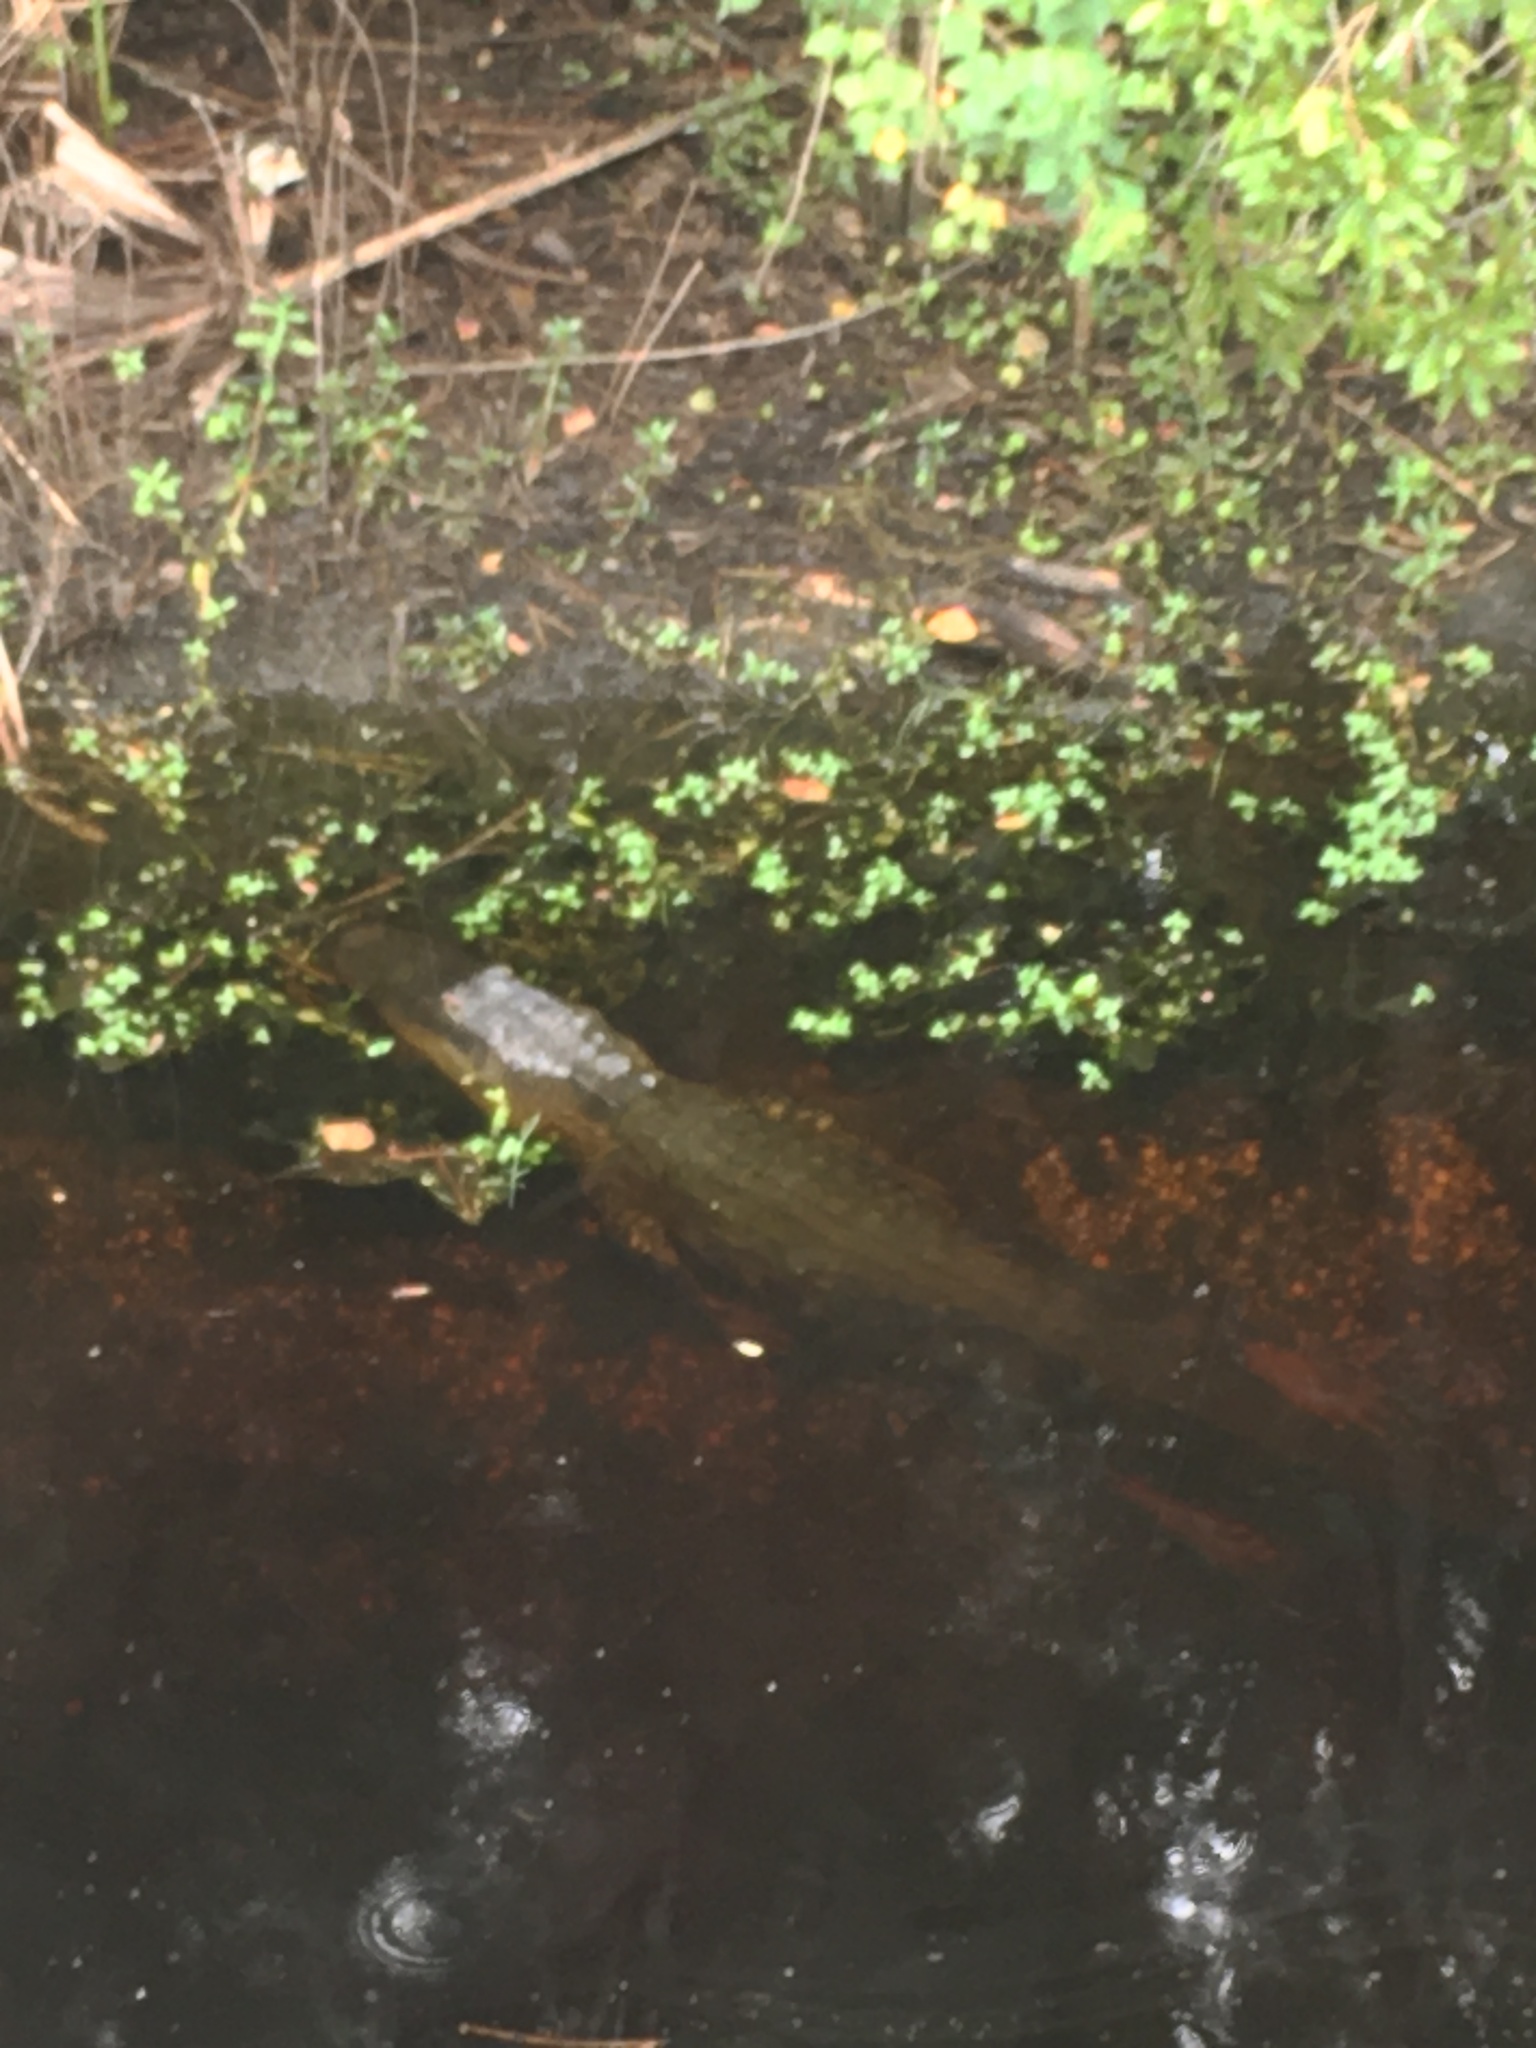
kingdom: Animalia
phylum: Chordata
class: Crocodylia
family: Alligatoridae
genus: Alligator
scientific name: Alligator mississippiensis
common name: American alligator
